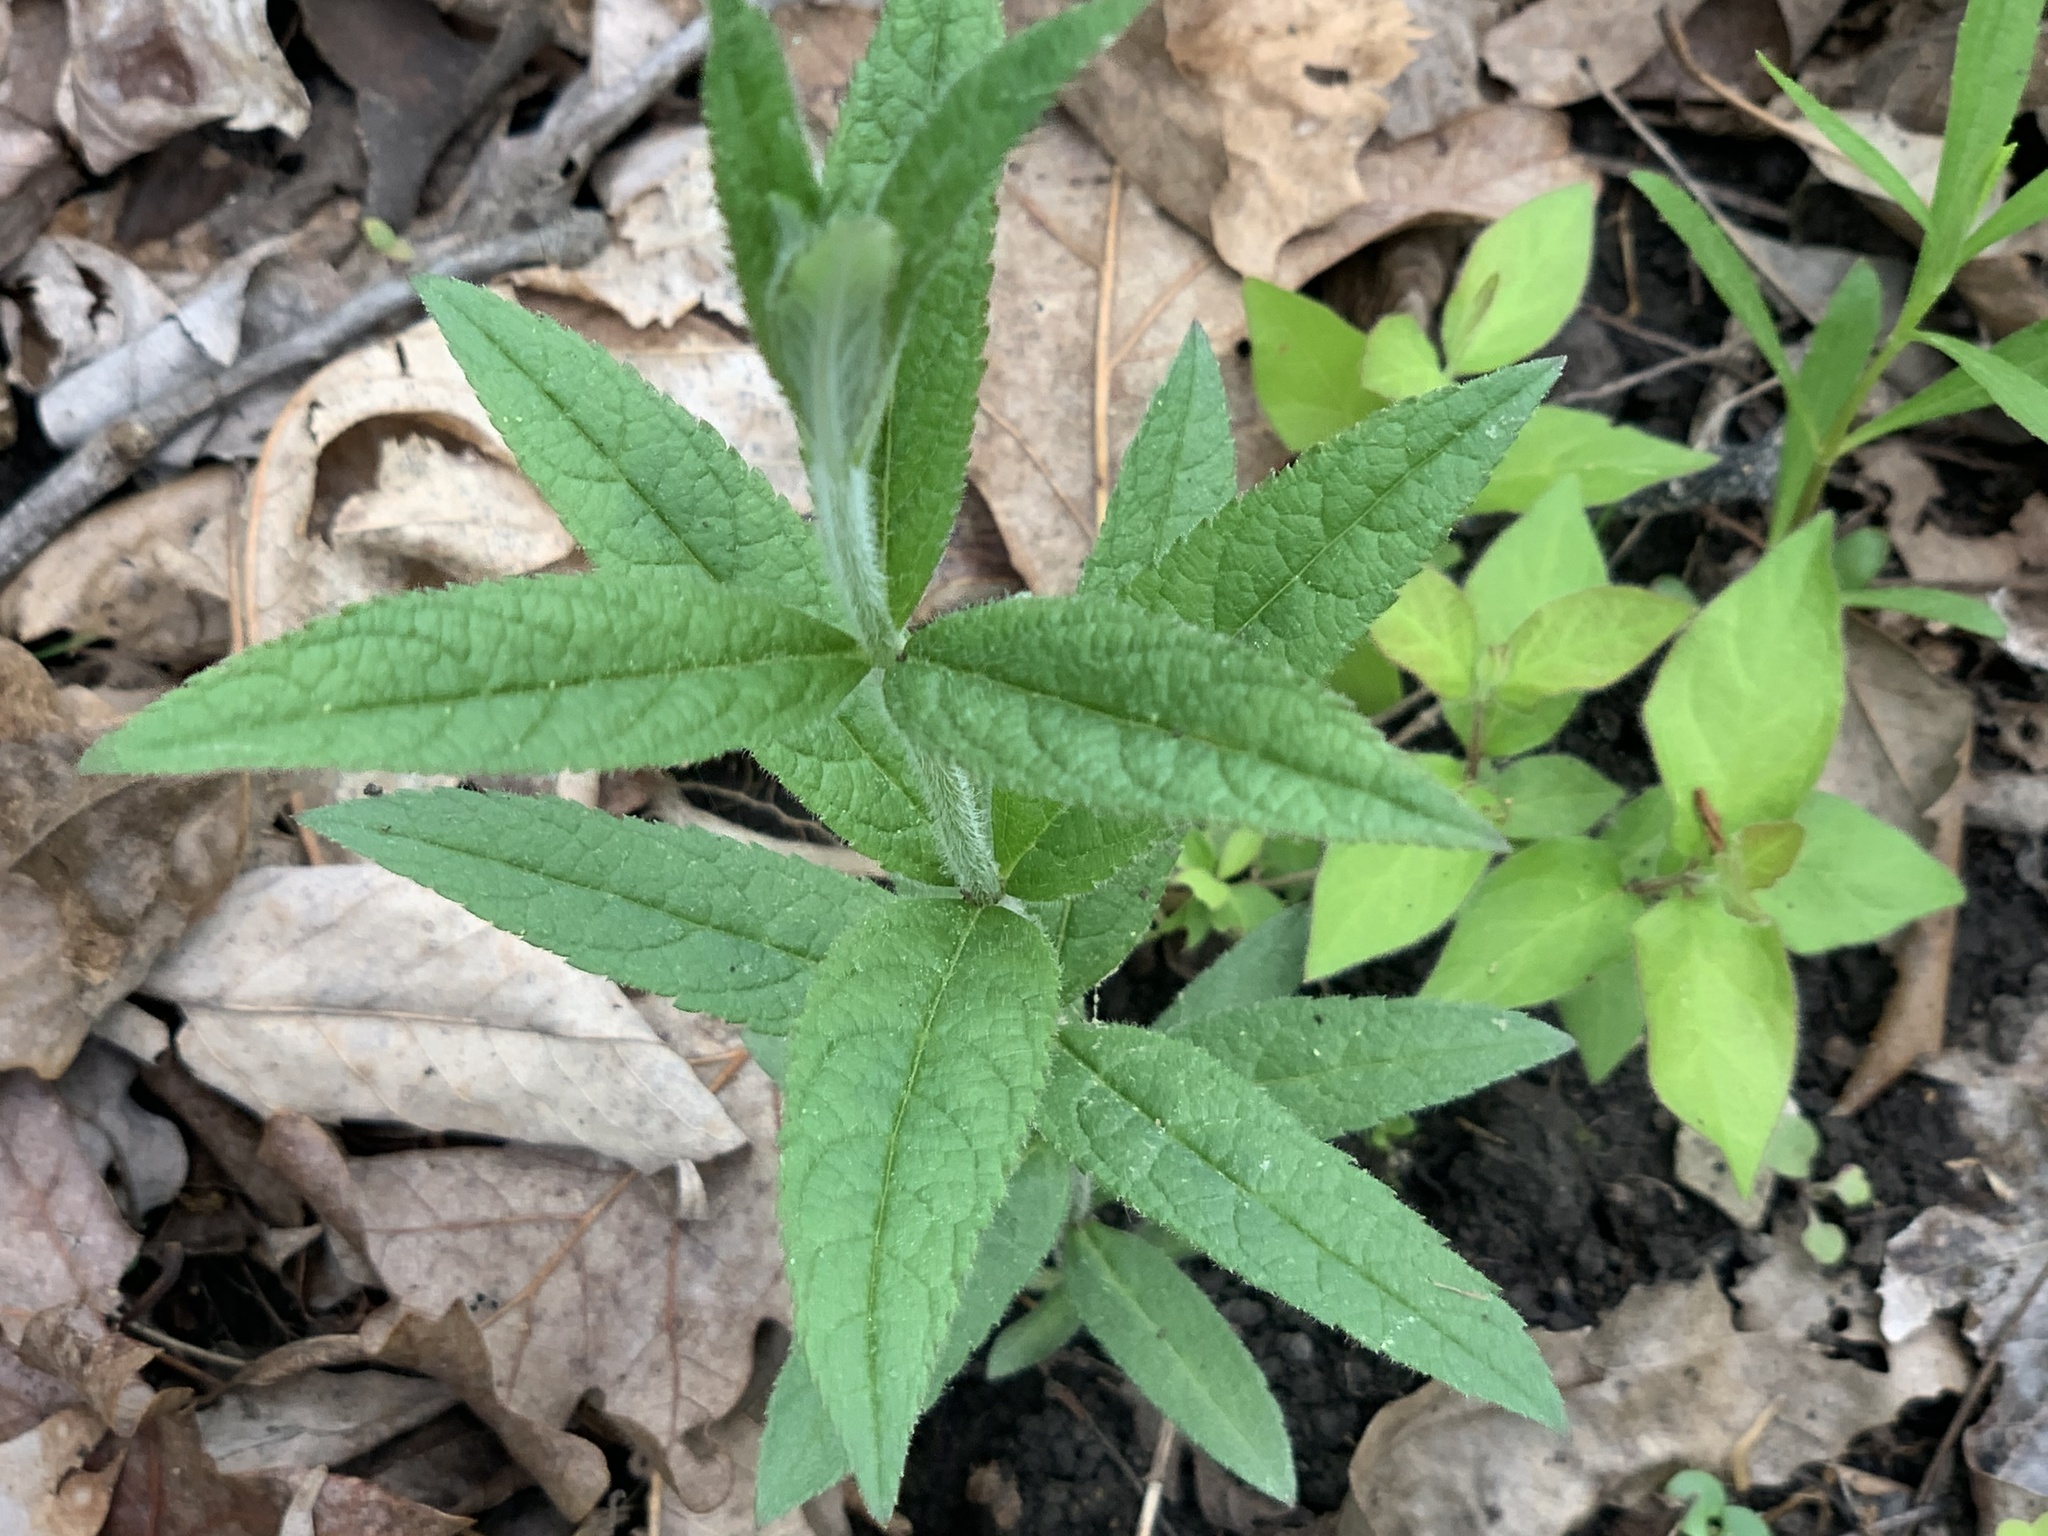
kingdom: Plantae
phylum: Tracheophyta
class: Magnoliopsida
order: Lamiales
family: Plantaginaceae
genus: Veronicastrum
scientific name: Veronicastrum virginicum
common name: Blackroot
